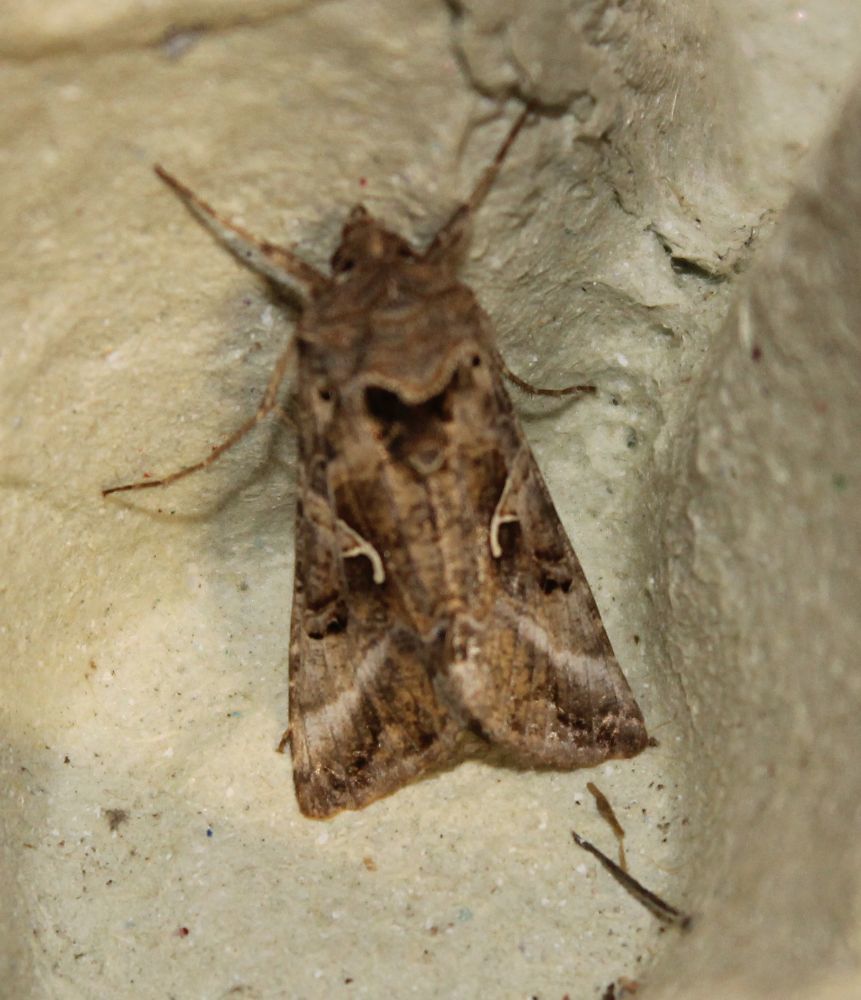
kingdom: Animalia
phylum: Arthropoda
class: Insecta
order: Lepidoptera
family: Noctuidae
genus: Autographa
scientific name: Autographa gamma
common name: Silver y
